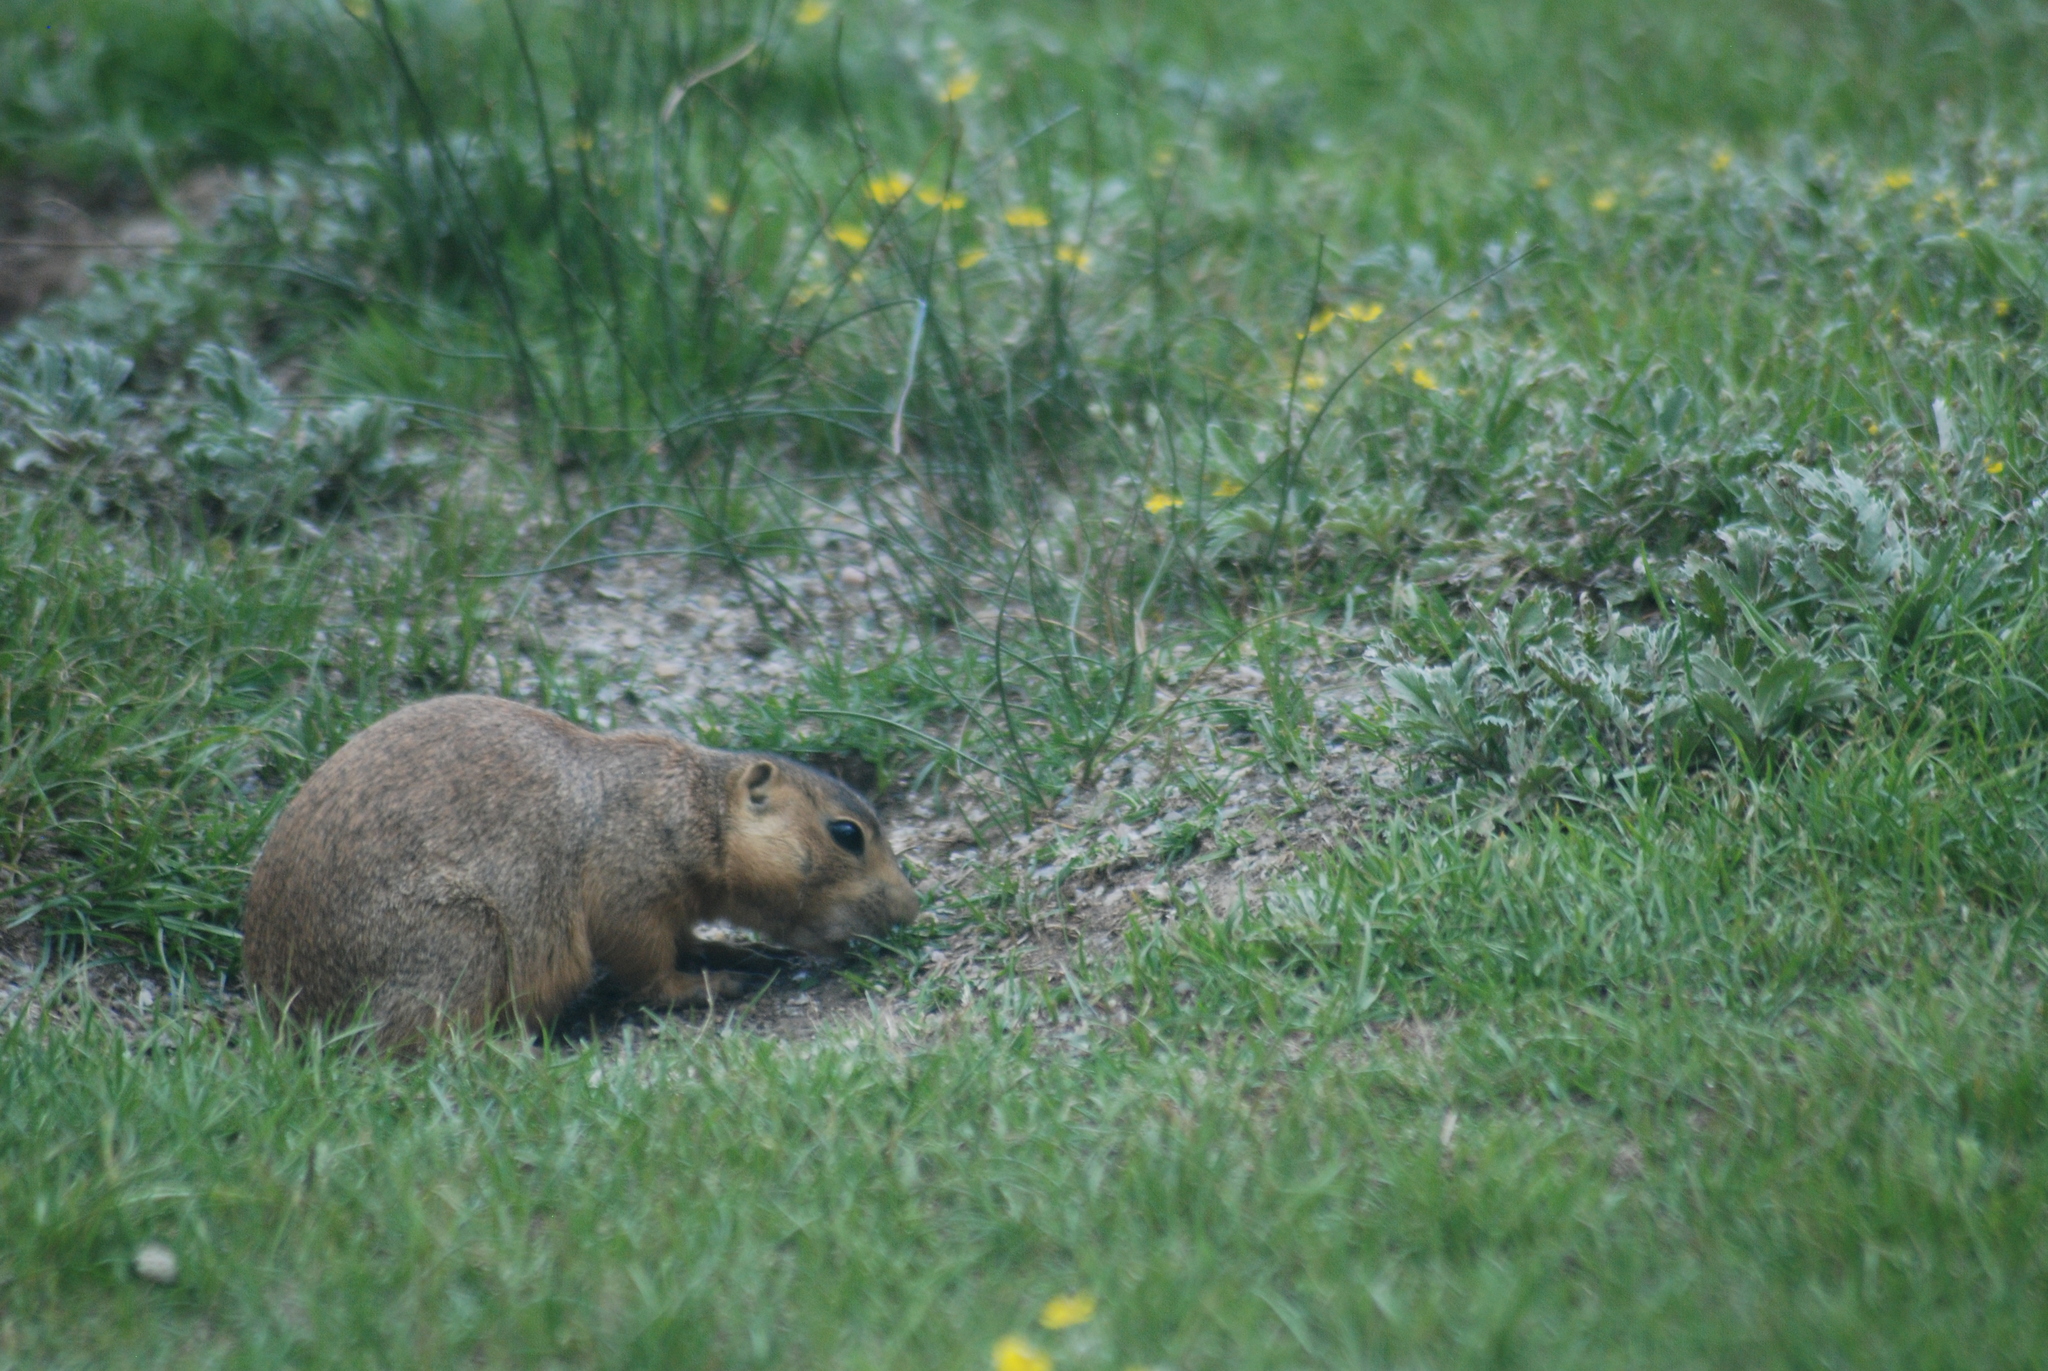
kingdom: Animalia
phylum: Chordata
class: Mammalia
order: Rodentia
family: Sciuridae
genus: Cynomys
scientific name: Cynomys gunnisoni
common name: Gunnison's prairie dog
